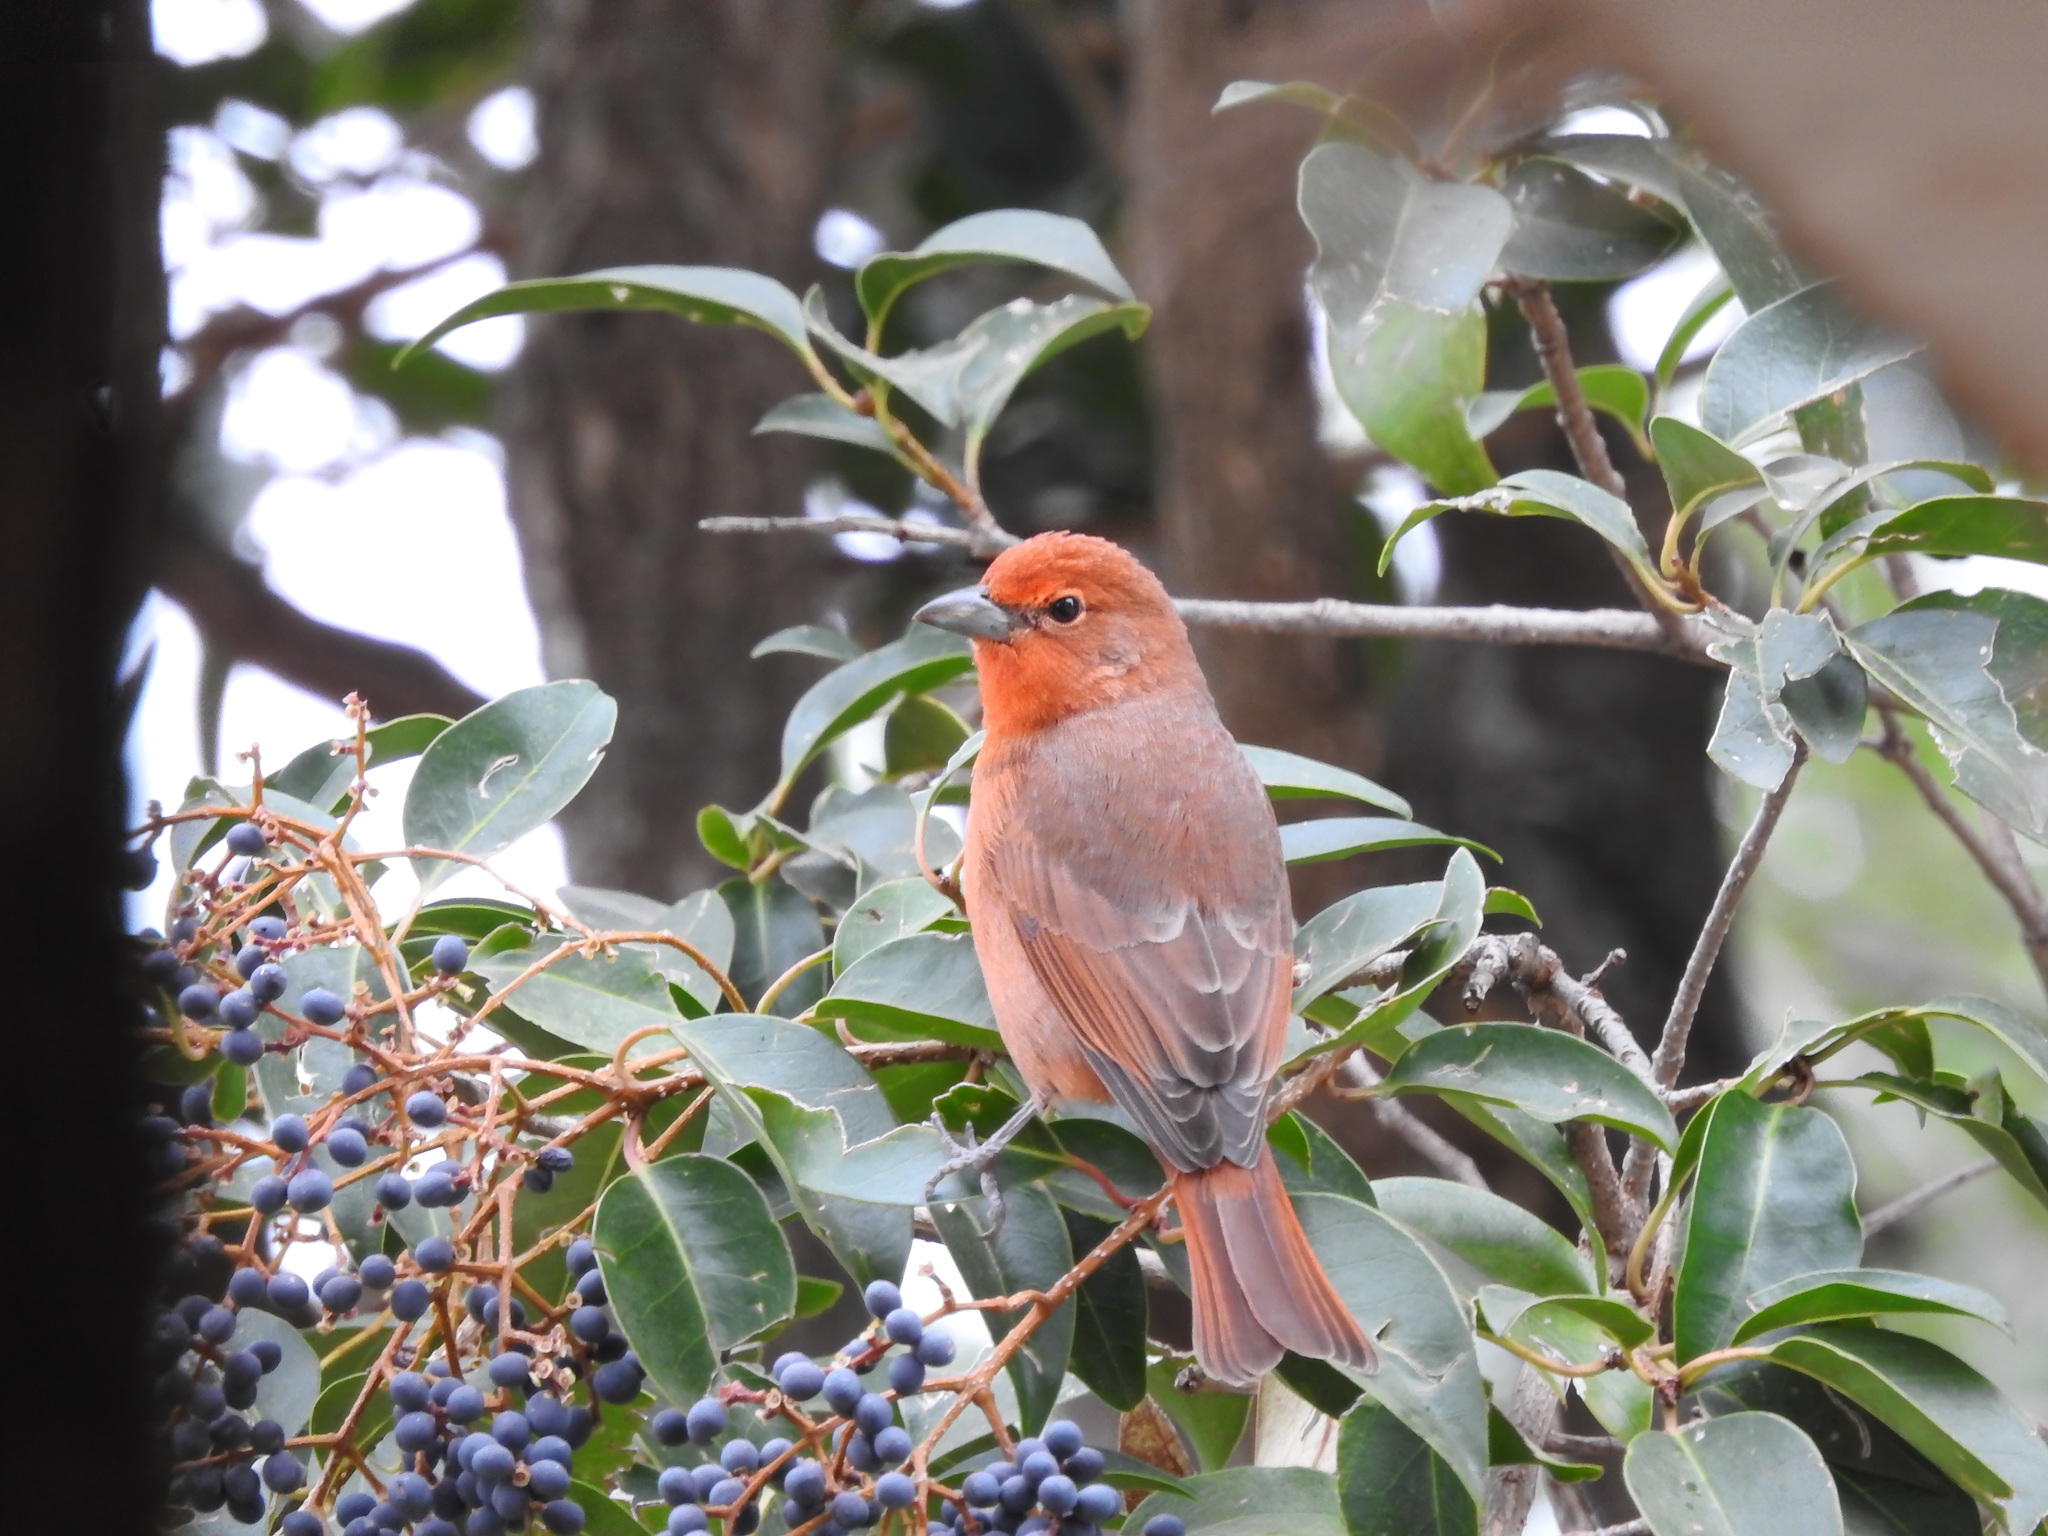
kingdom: Animalia
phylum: Chordata
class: Aves
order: Passeriformes
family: Cardinalidae
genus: Piranga
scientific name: Piranga flava
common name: Red tanager
